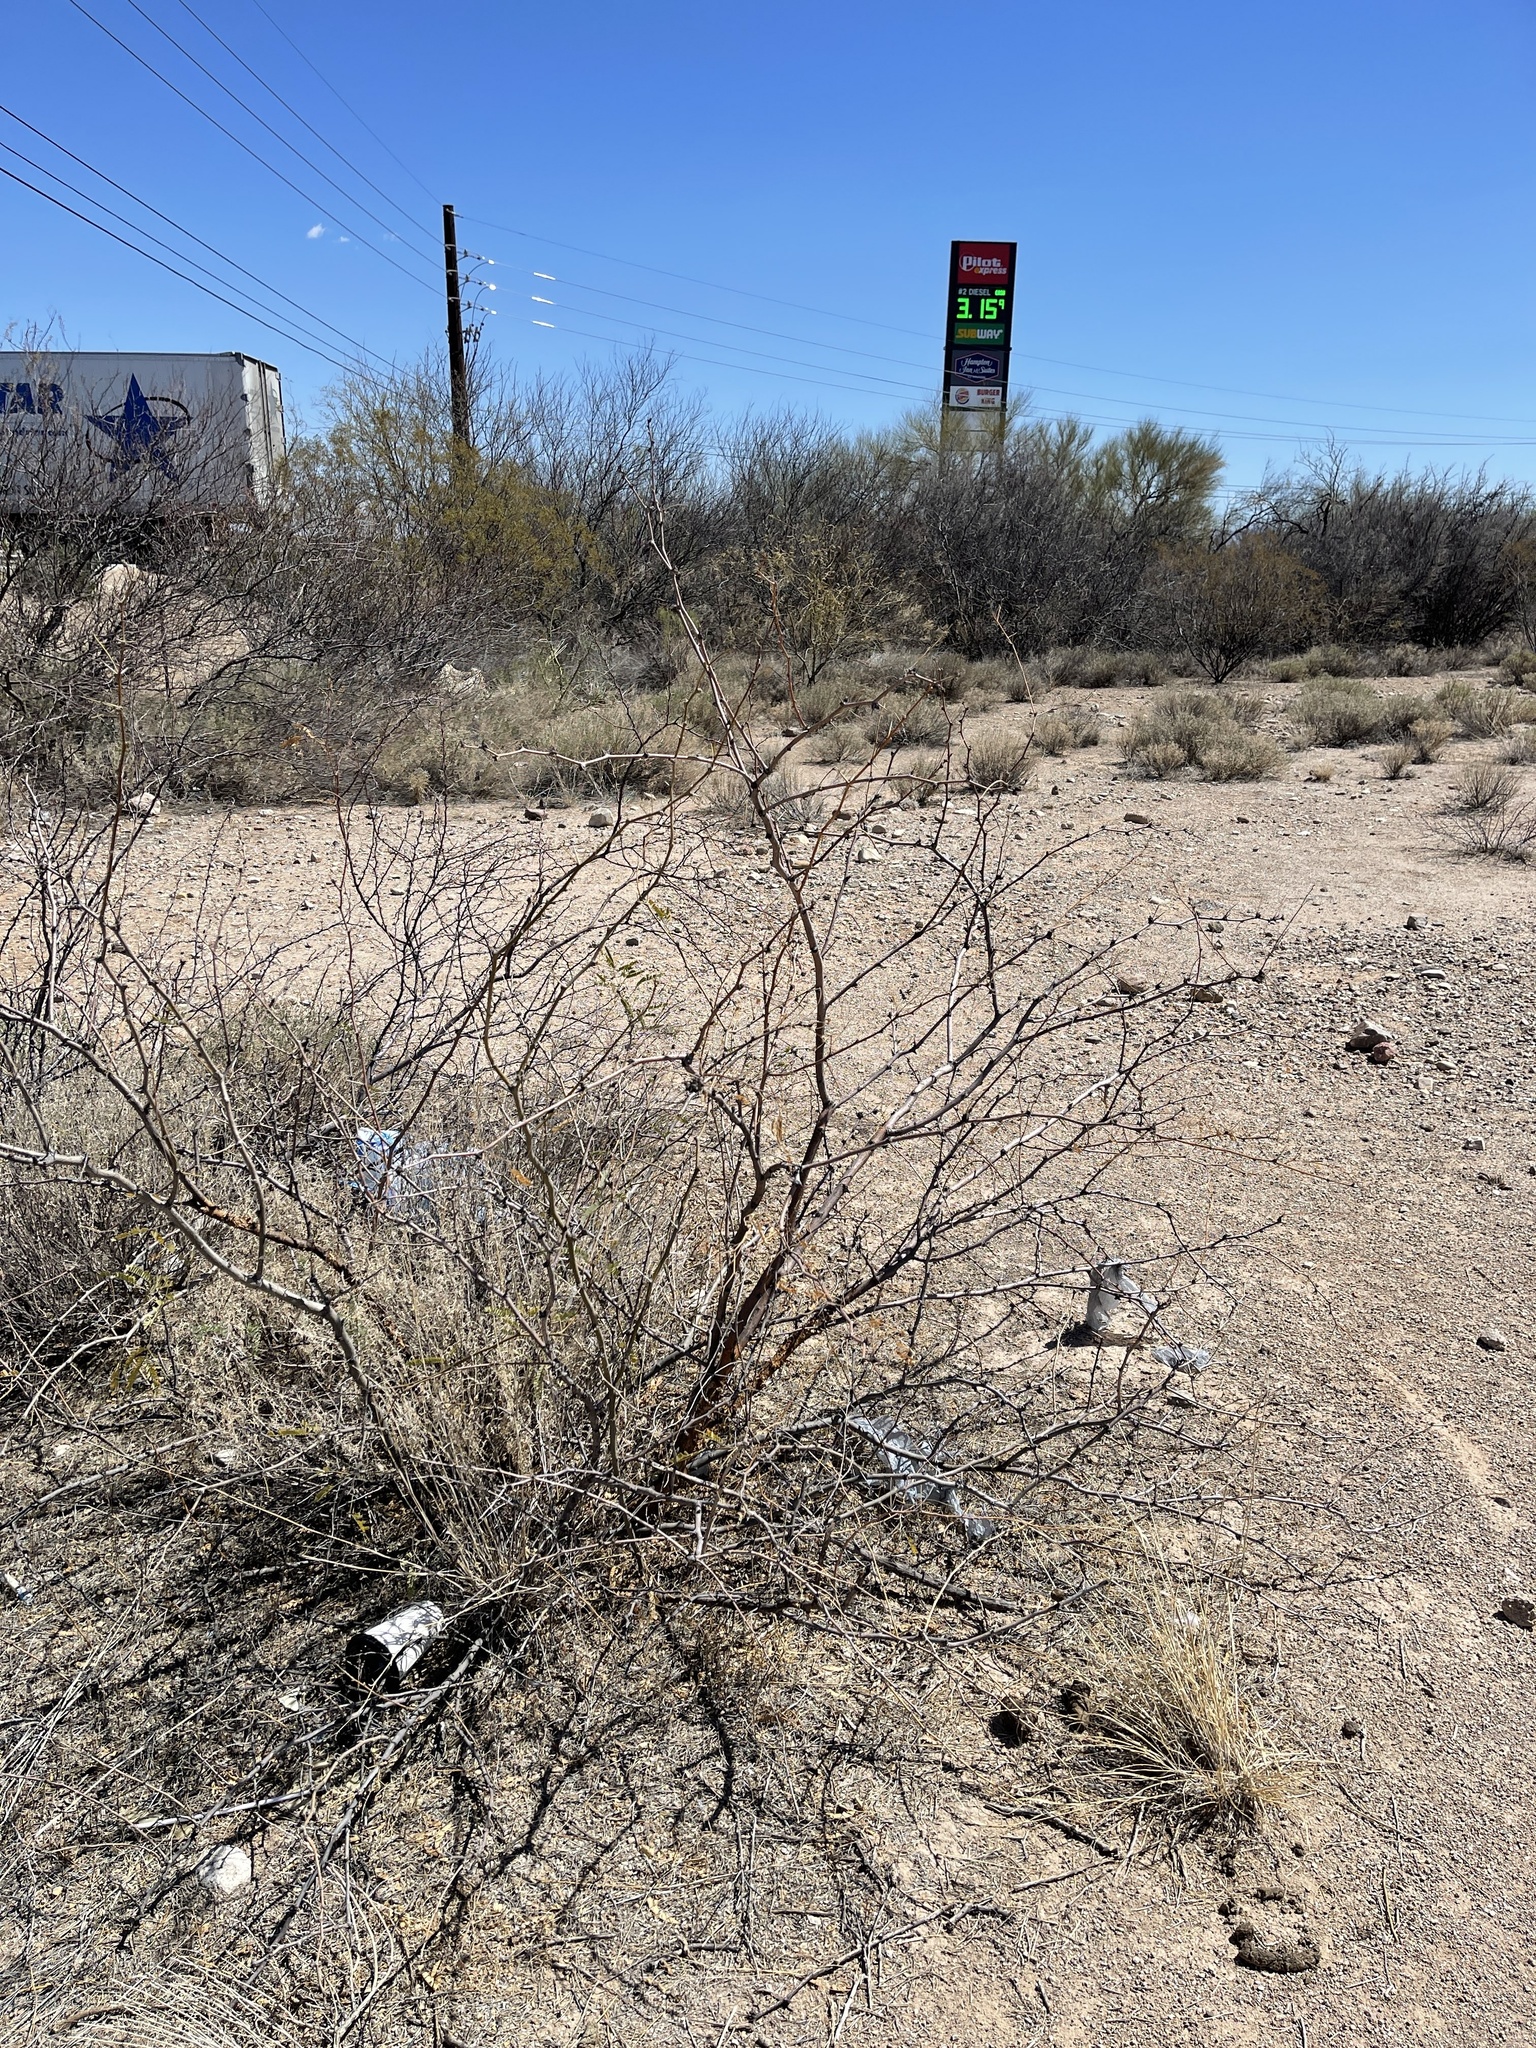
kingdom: Plantae
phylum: Tracheophyta
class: Magnoliopsida
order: Fabales
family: Fabaceae
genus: Vachellia
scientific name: Vachellia constricta
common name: Mescat acacia
